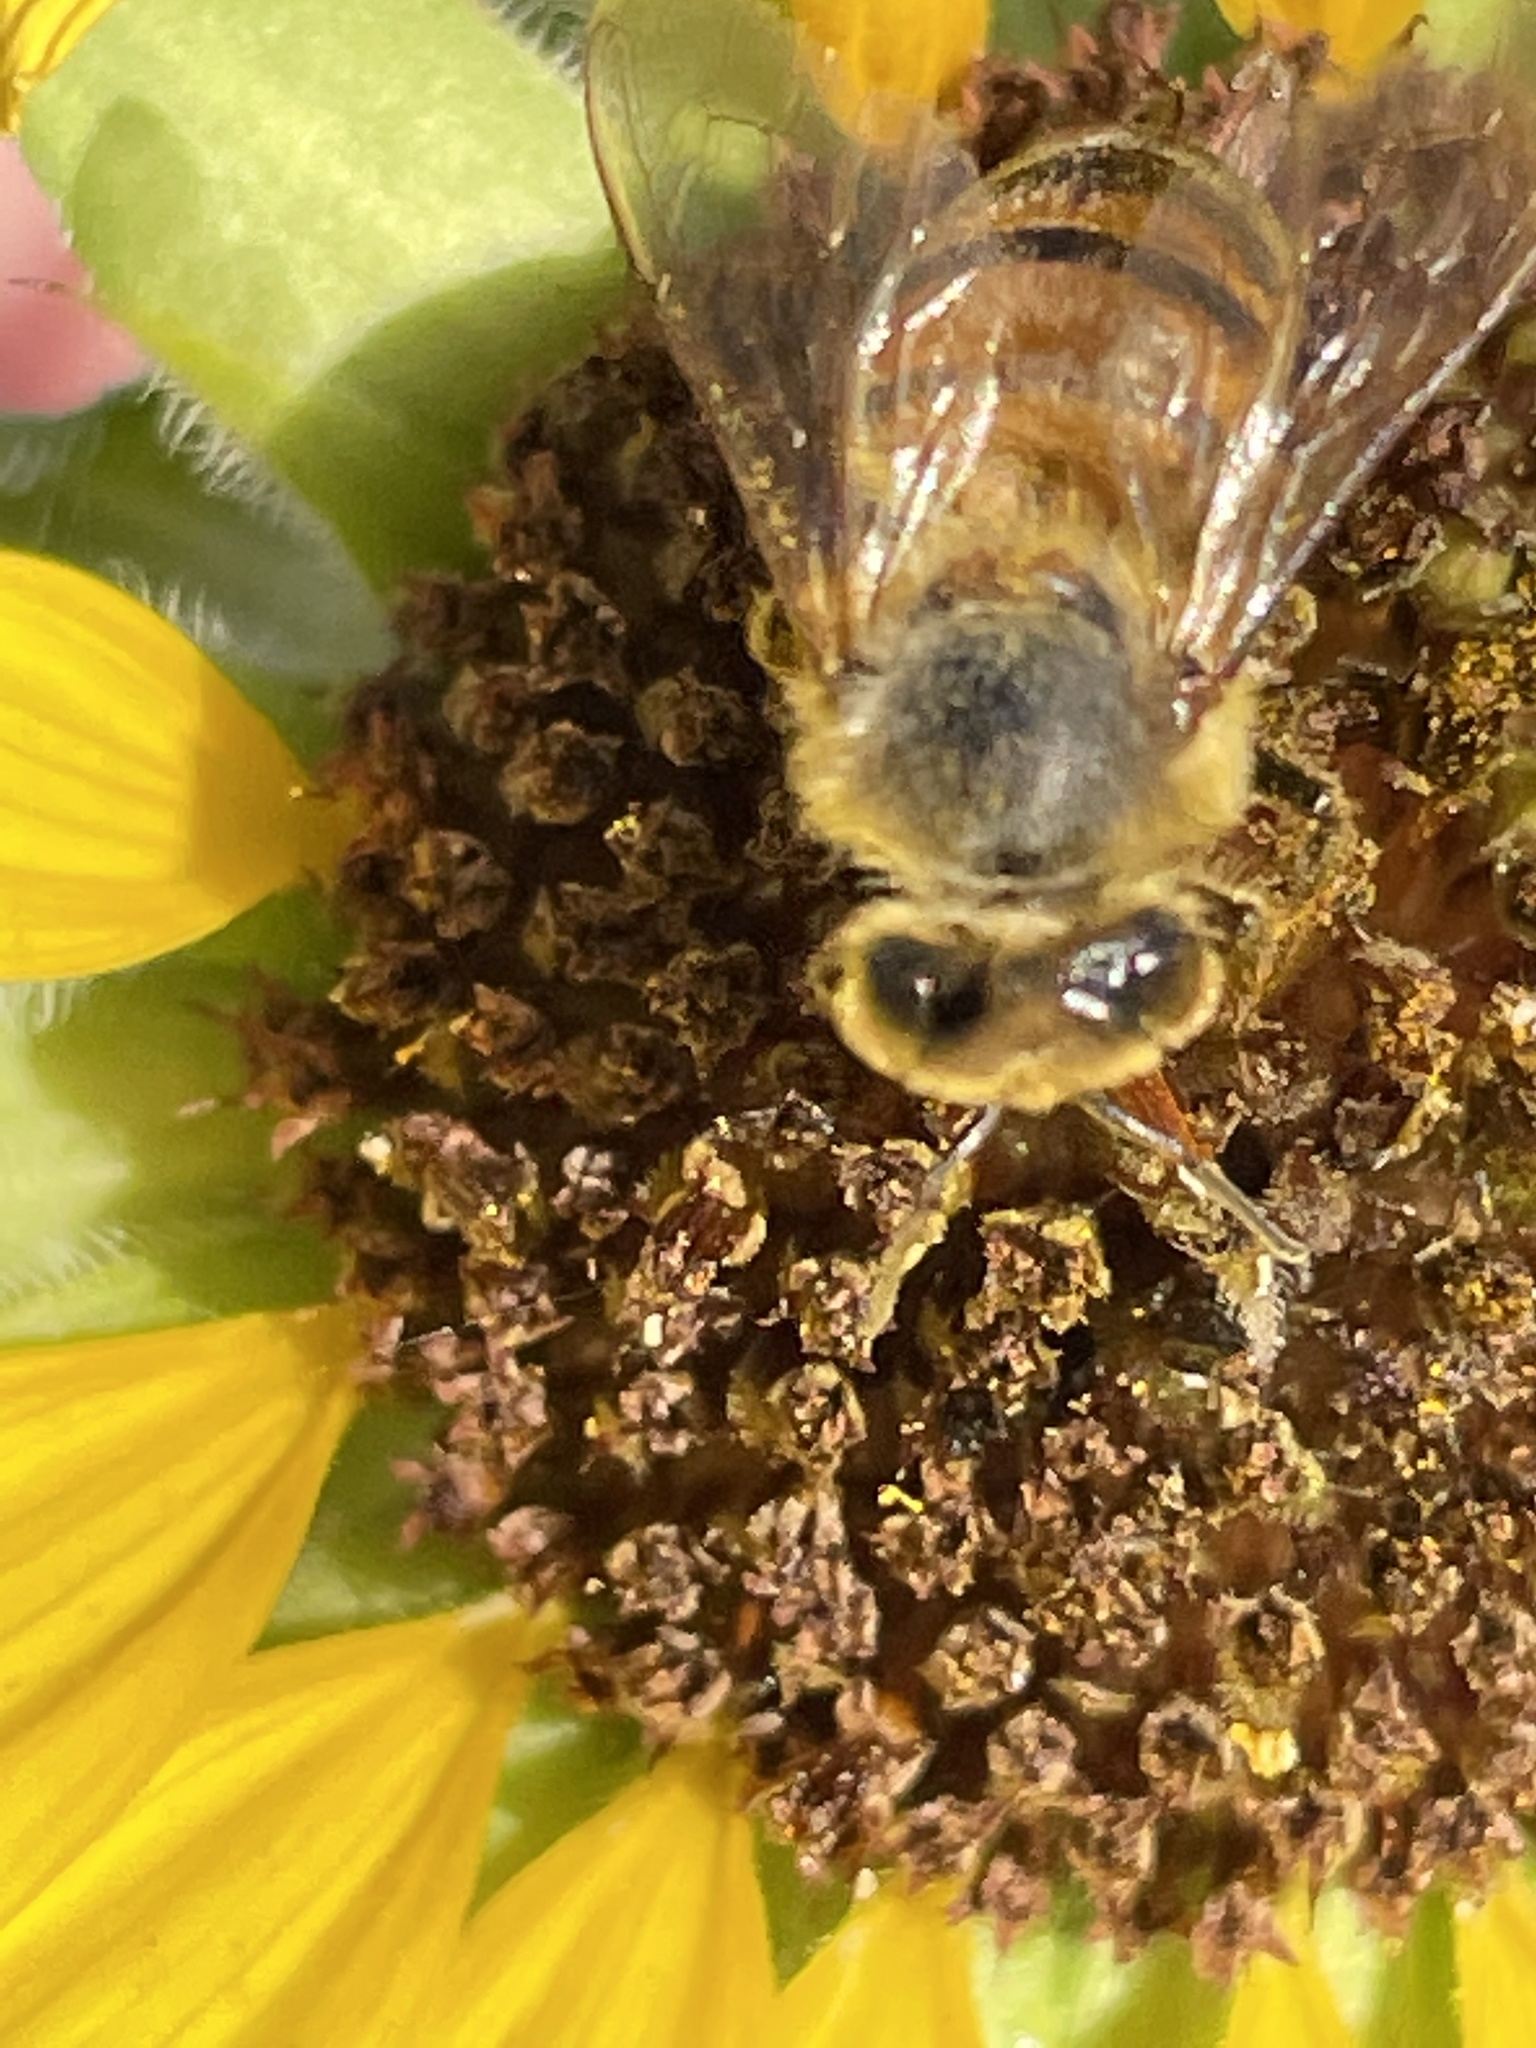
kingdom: Plantae
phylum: Tracheophyta
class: Magnoliopsida
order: Asterales
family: Asteraceae
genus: Helianthus
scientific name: Helianthus annuus
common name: Sunflower
